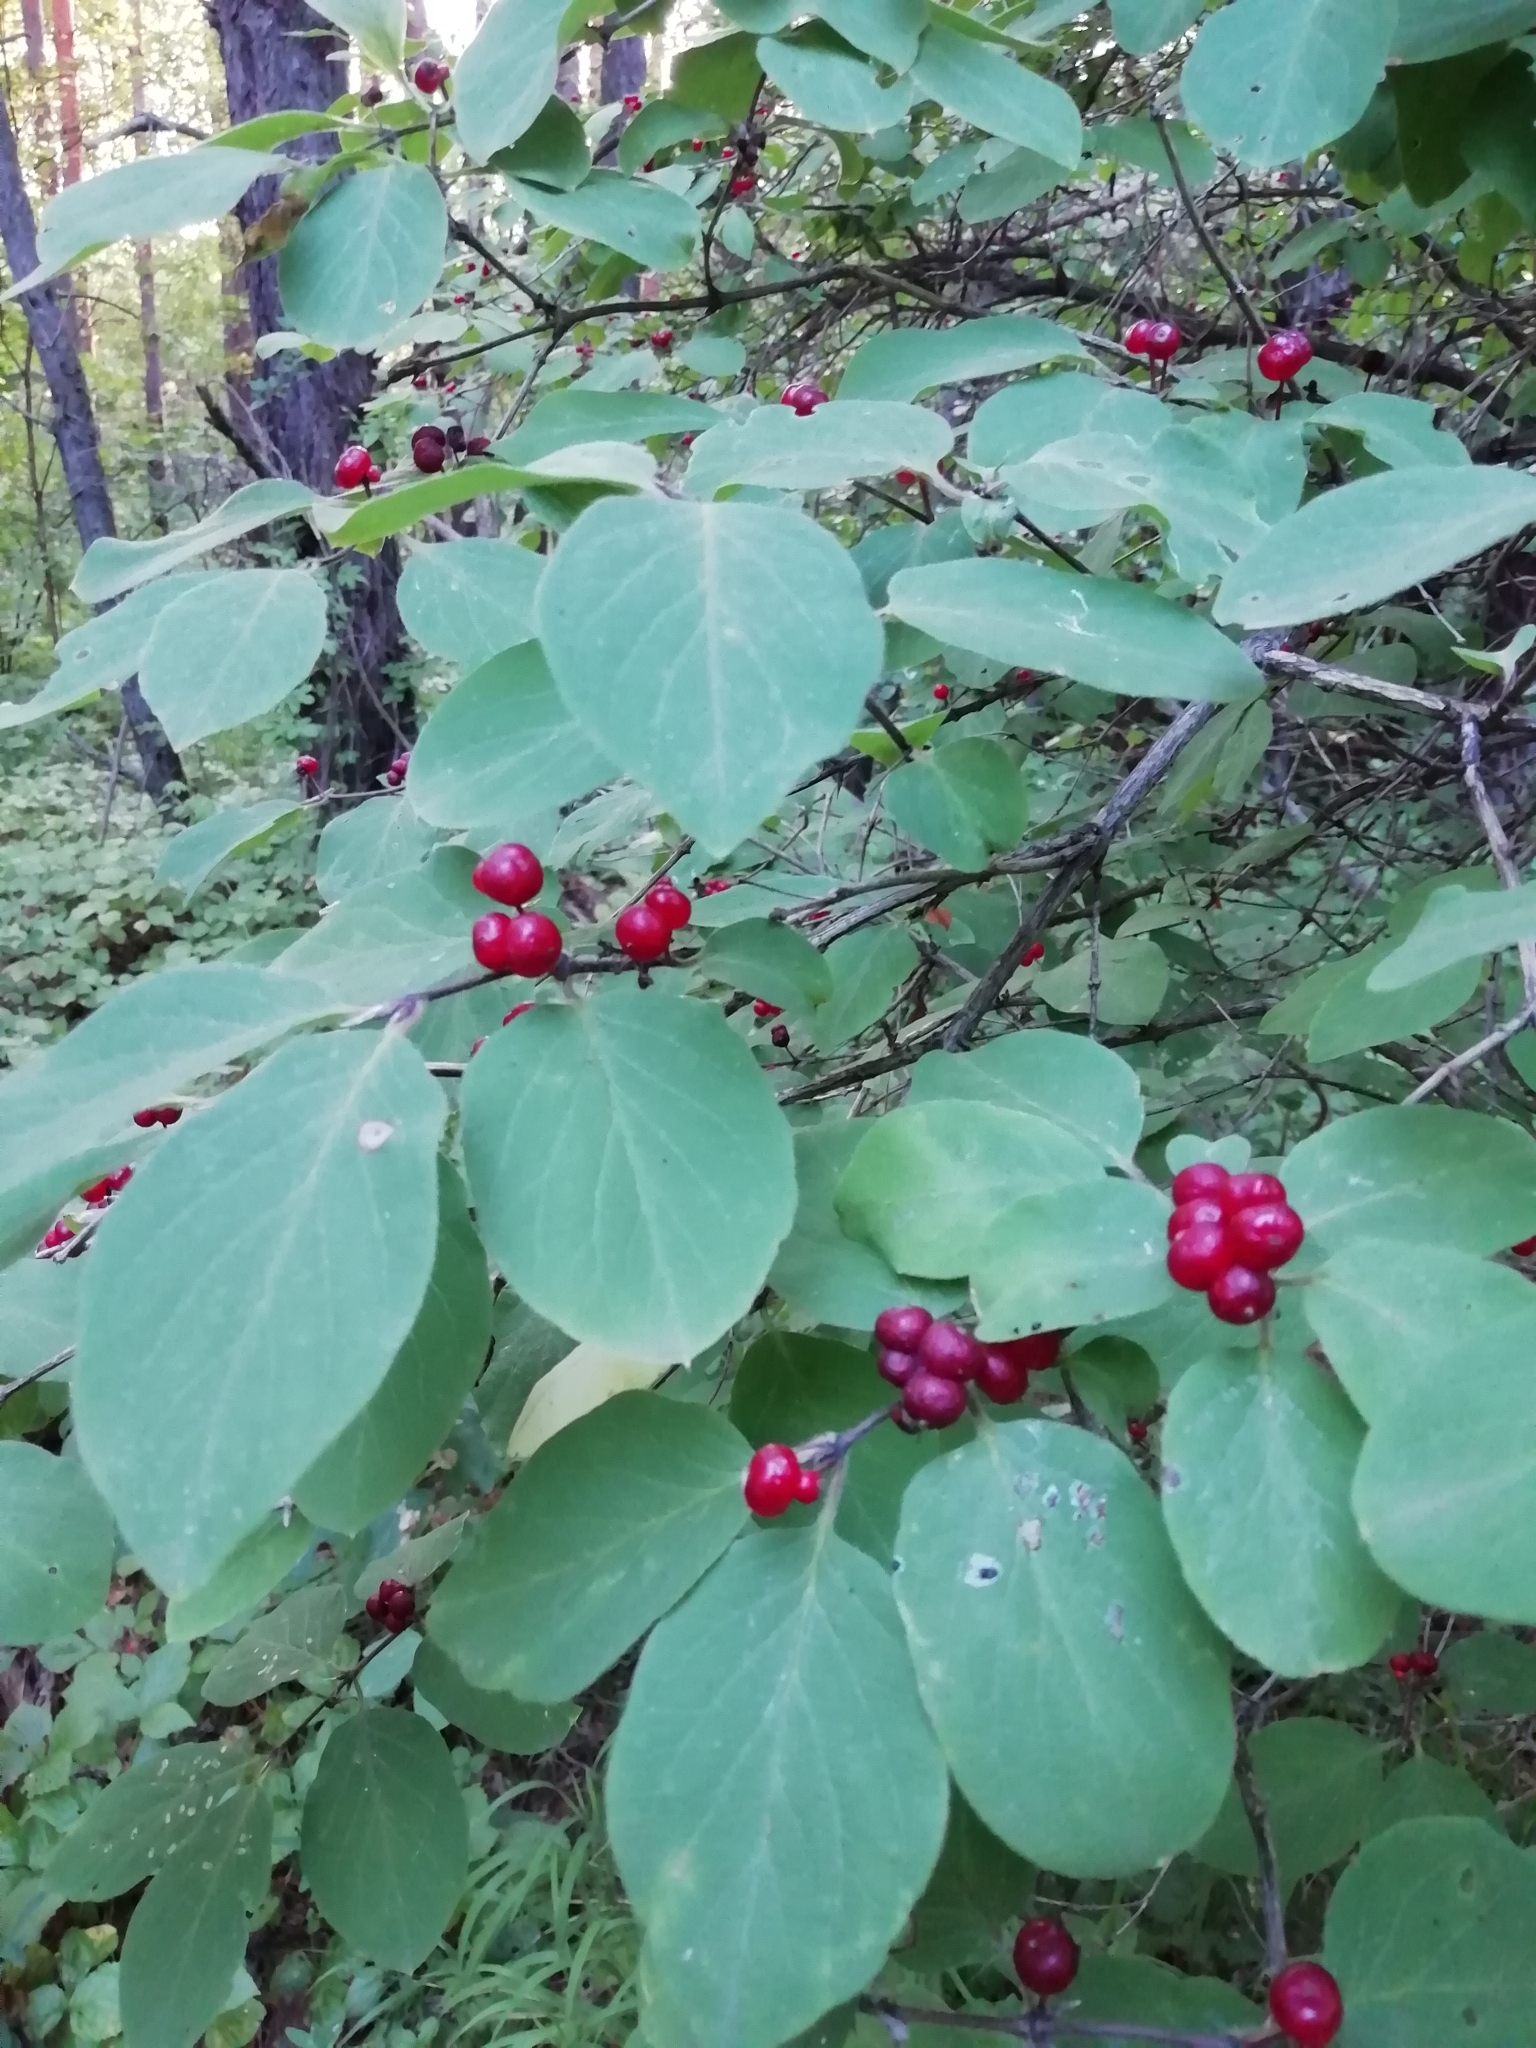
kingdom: Plantae
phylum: Tracheophyta
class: Magnoliopsida
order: Dipsacales
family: Caprifoliaceae
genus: Lonicera
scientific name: Lonicera xylosteum
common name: Fly honeysuckle
